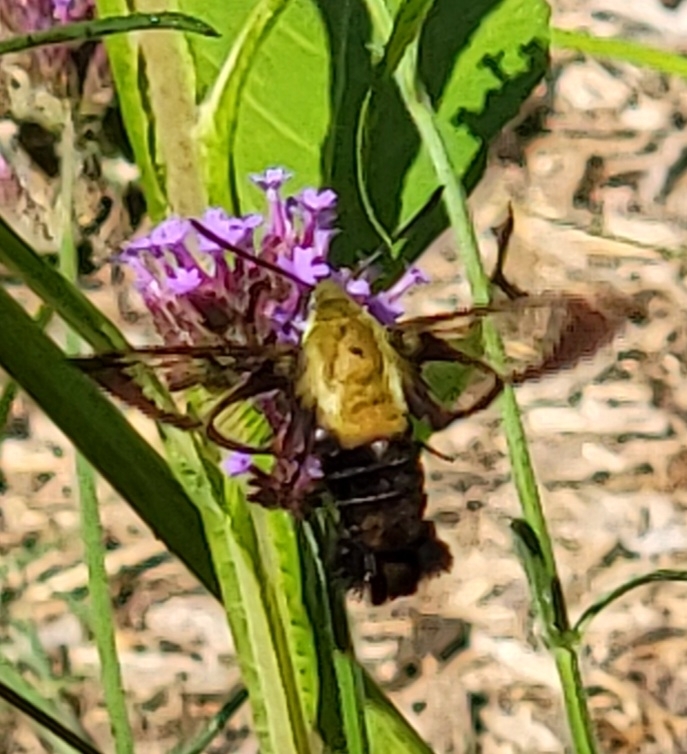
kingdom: Animalia
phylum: Arthropoda
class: Insecta
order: Lepidoptera
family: Sphingidae
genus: Hemaris
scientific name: Hemaris diffinis
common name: Bumblebee moth
